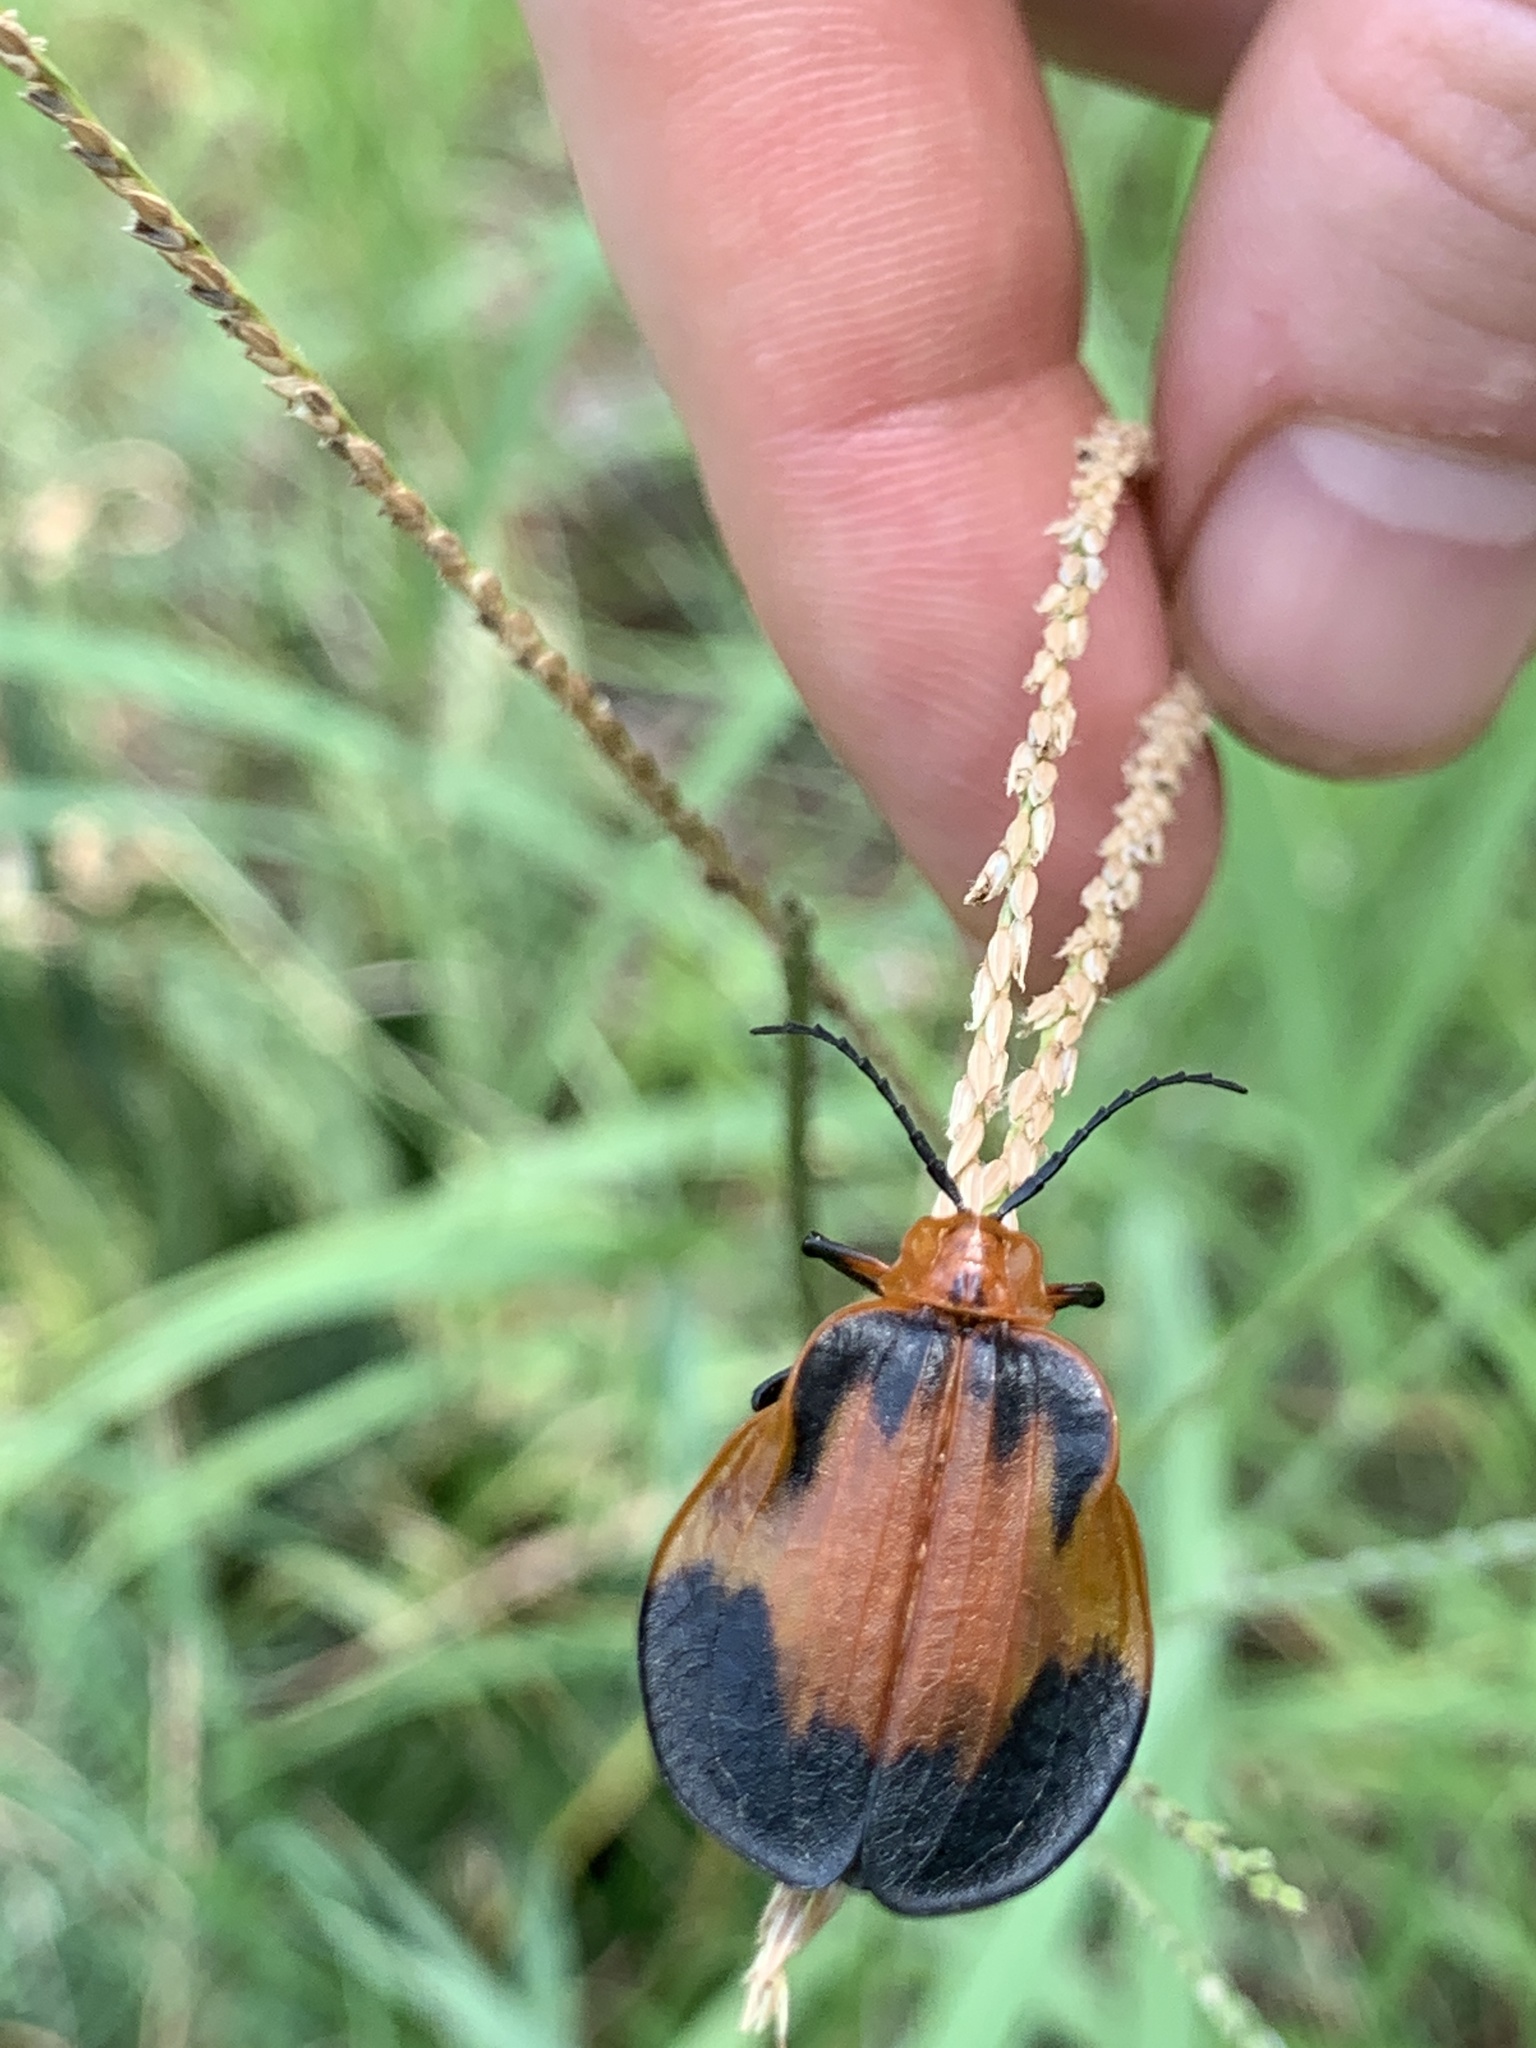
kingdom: Animalia
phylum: Arthropoda
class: Insecta
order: Coleoptera
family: Lycidae
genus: Lycus
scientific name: Lycus
